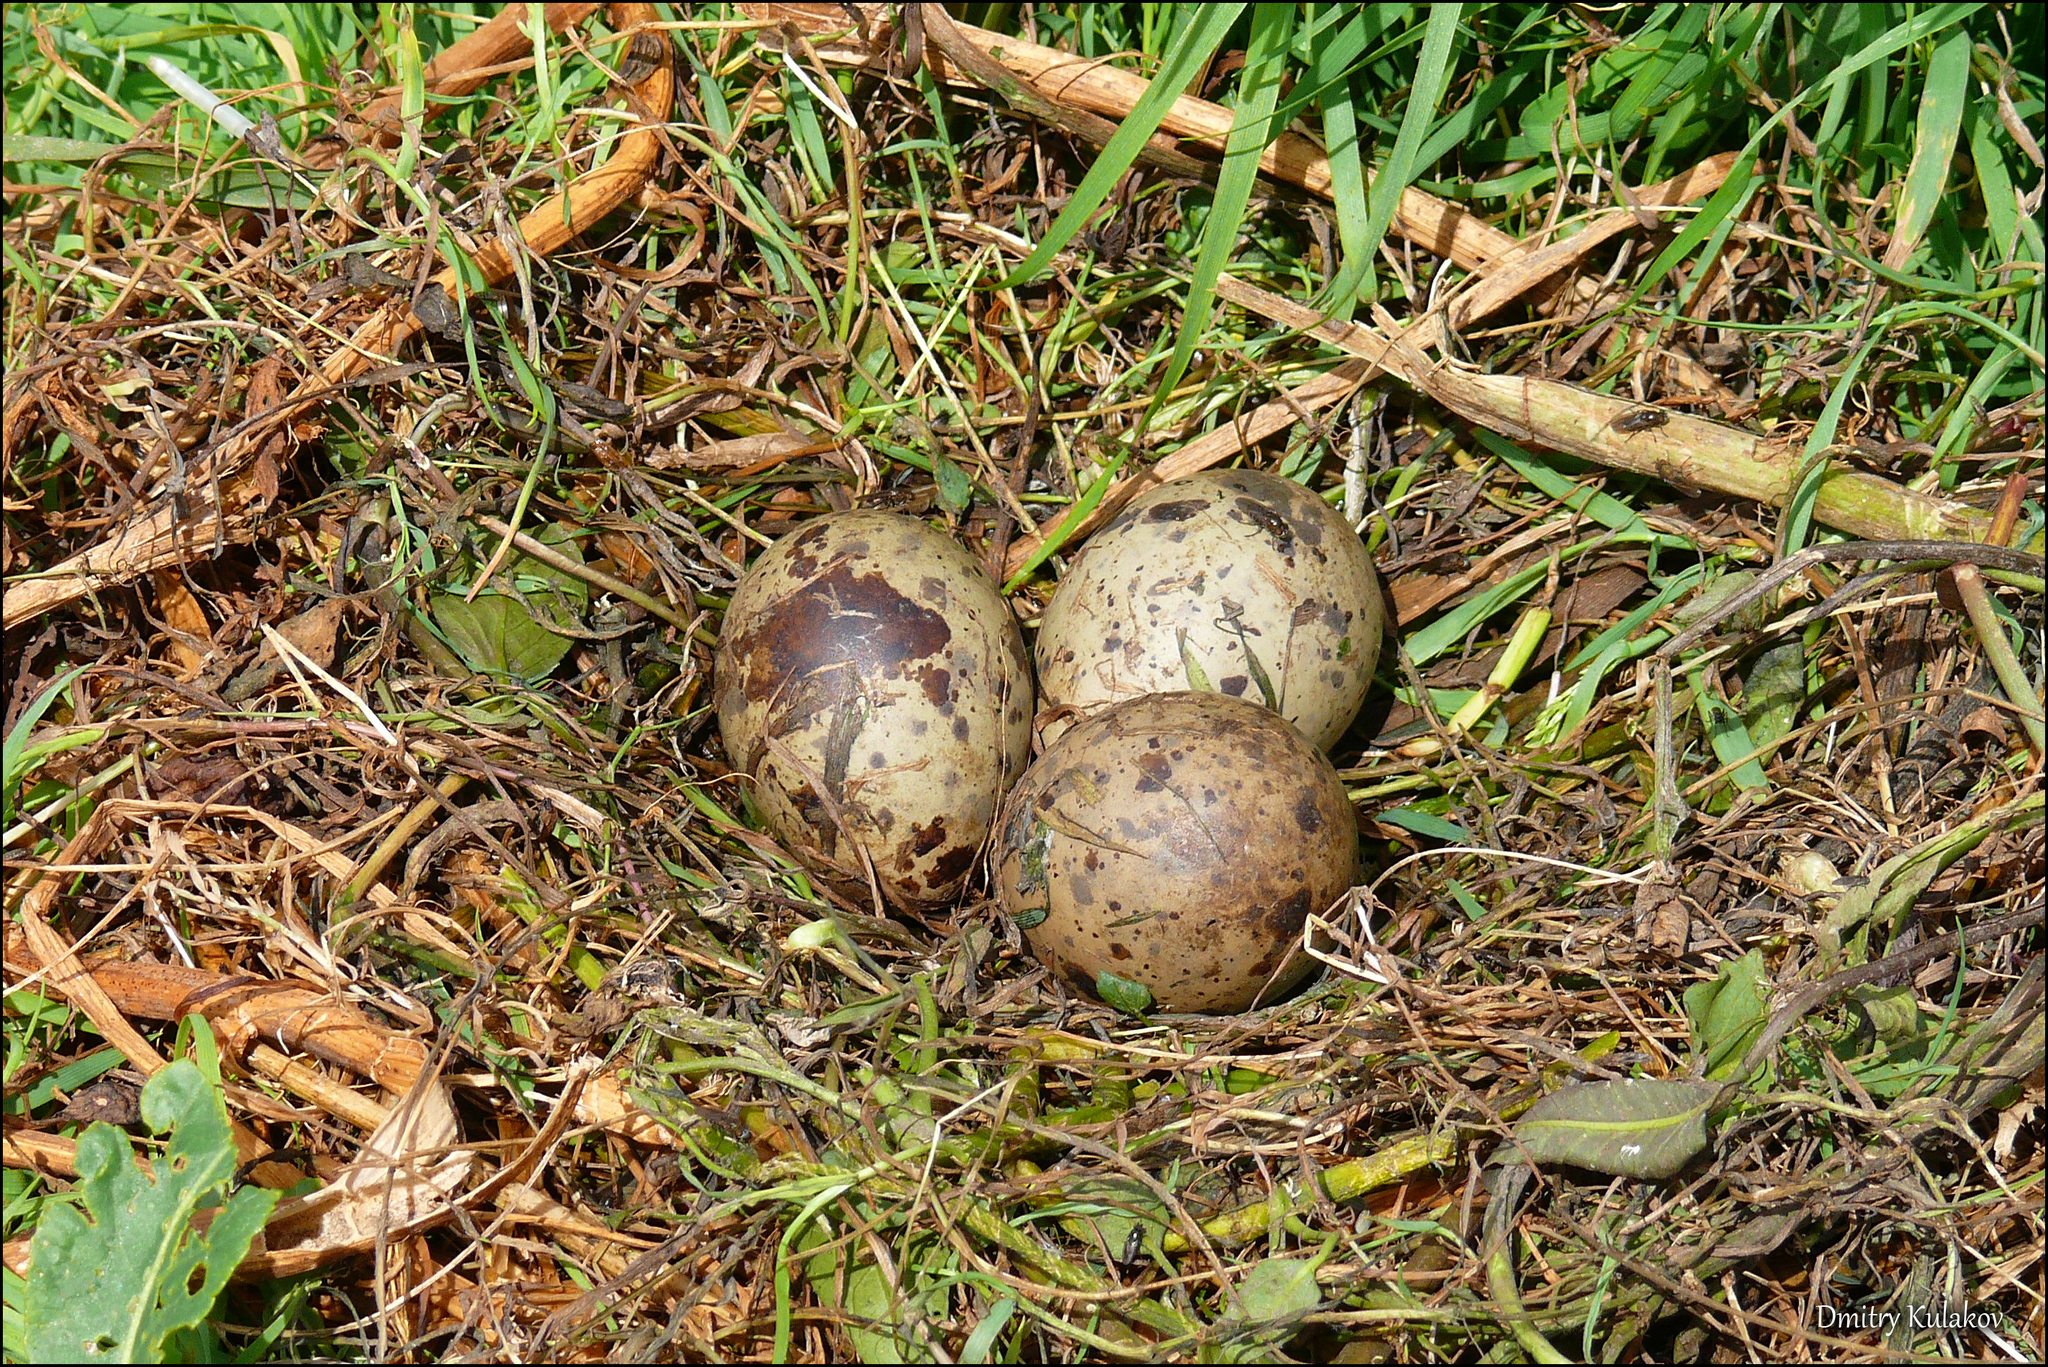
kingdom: Animalia
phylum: Chordata
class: Aves
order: Charadriiformes
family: Laridae
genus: Sterna
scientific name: Sterna hirundo
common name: Common tern
